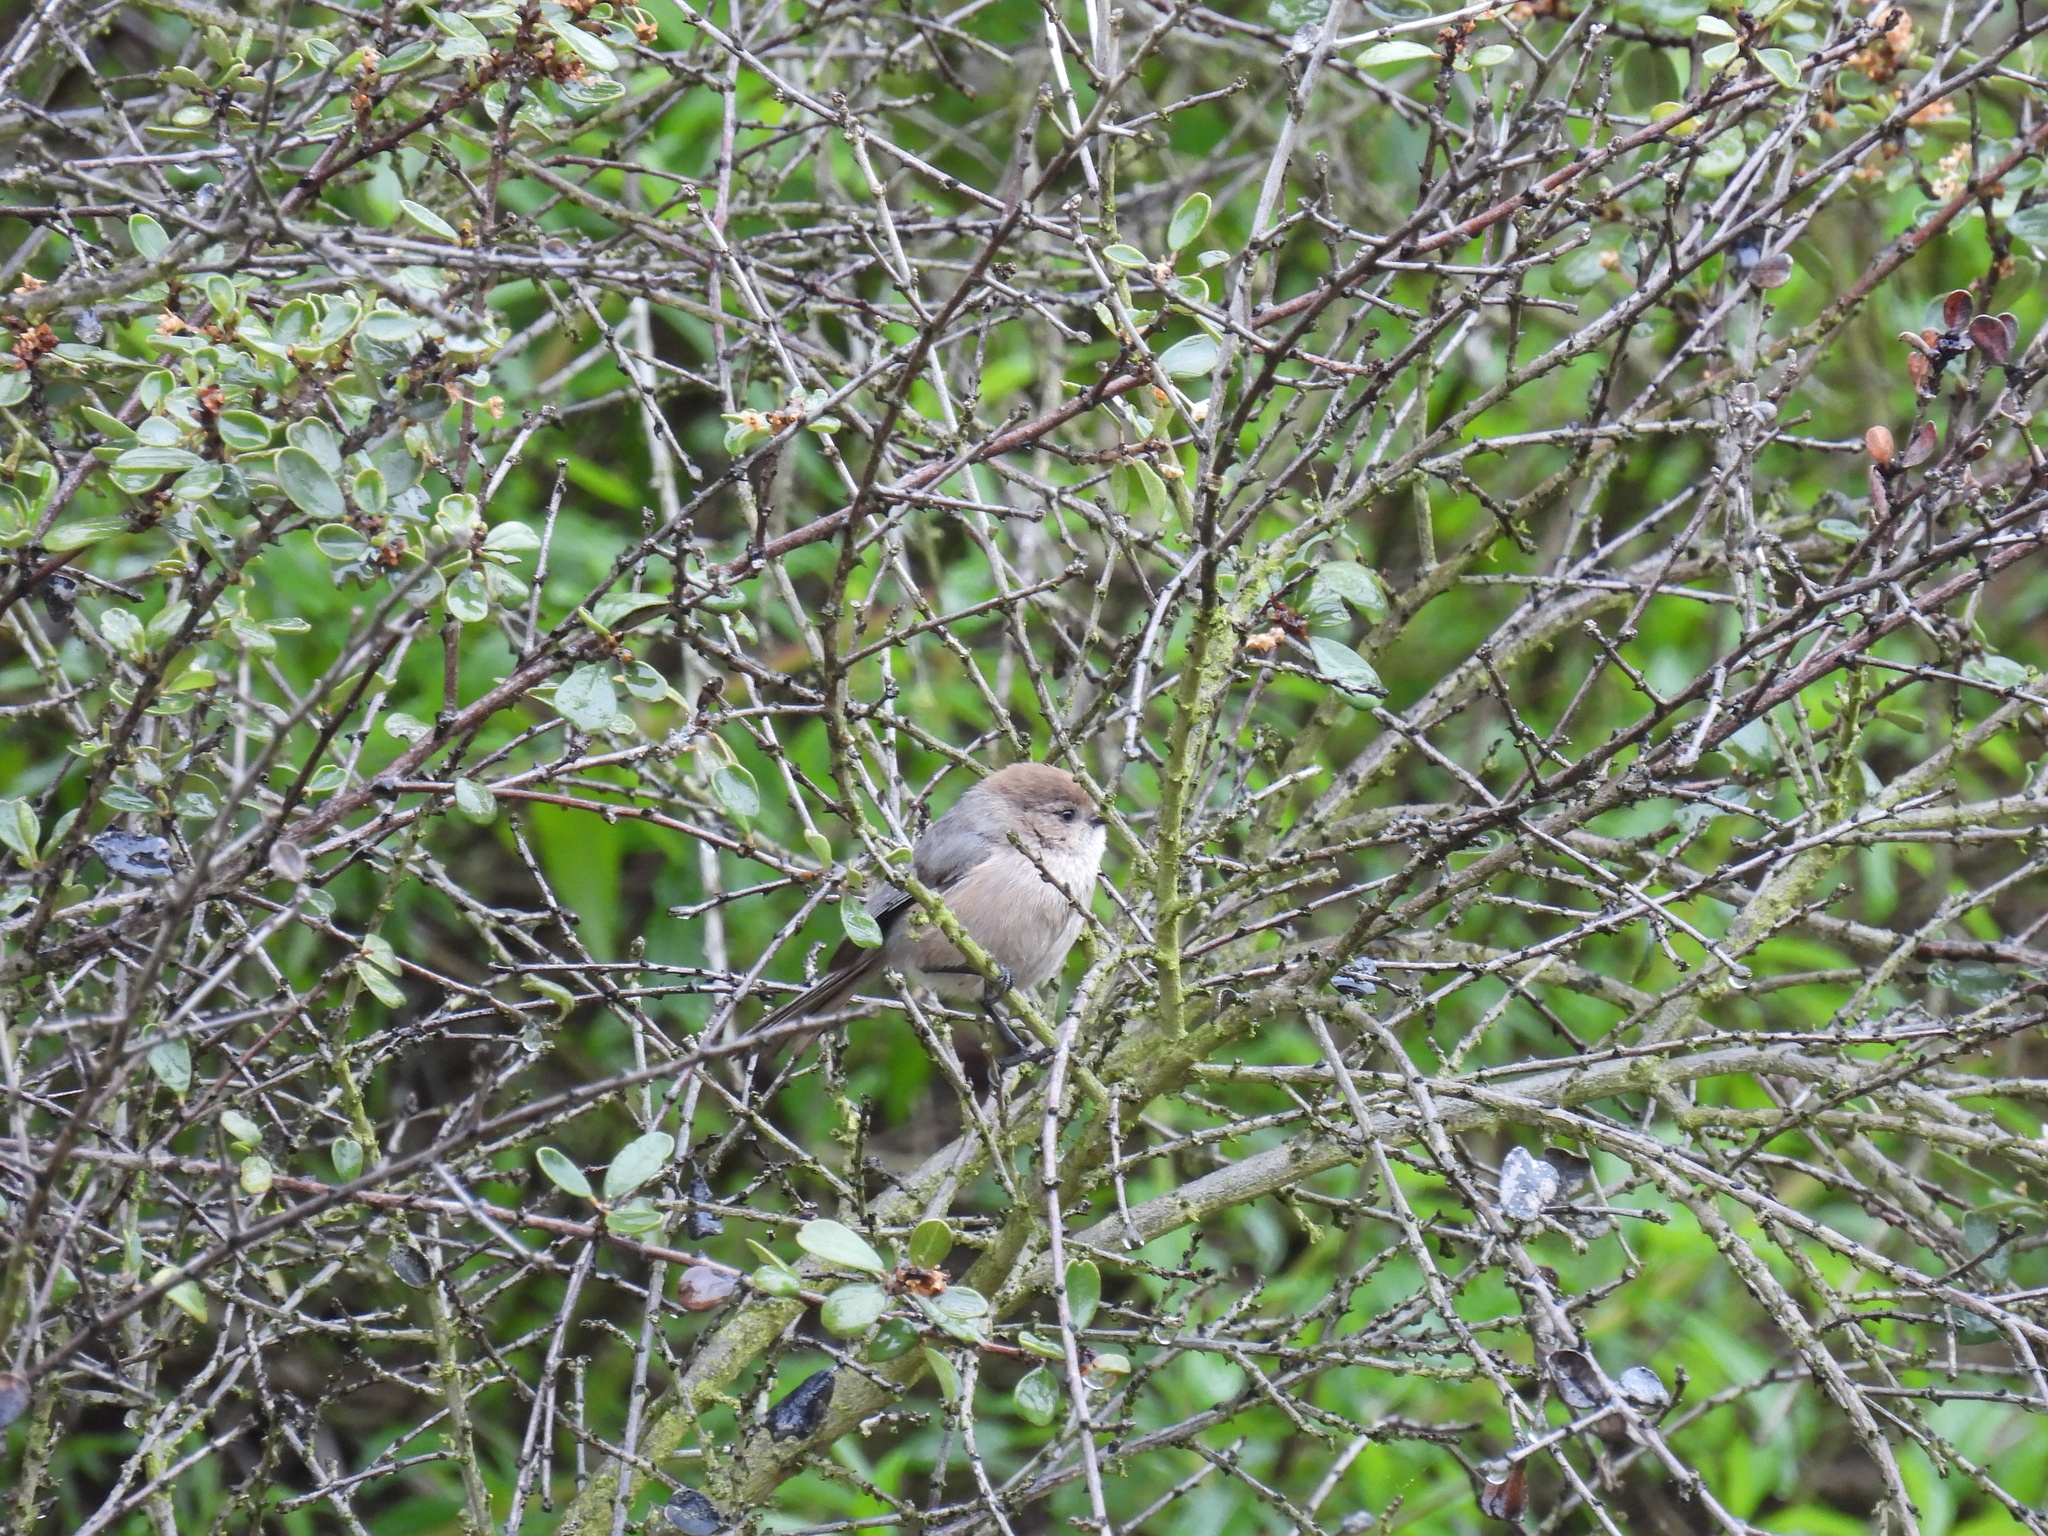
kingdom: Animalia
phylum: Chordata
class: Aves
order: Passeriformes
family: Aegithalidae
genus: Psaltriparus
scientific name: Psaltriparus minimus
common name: American bushtit
